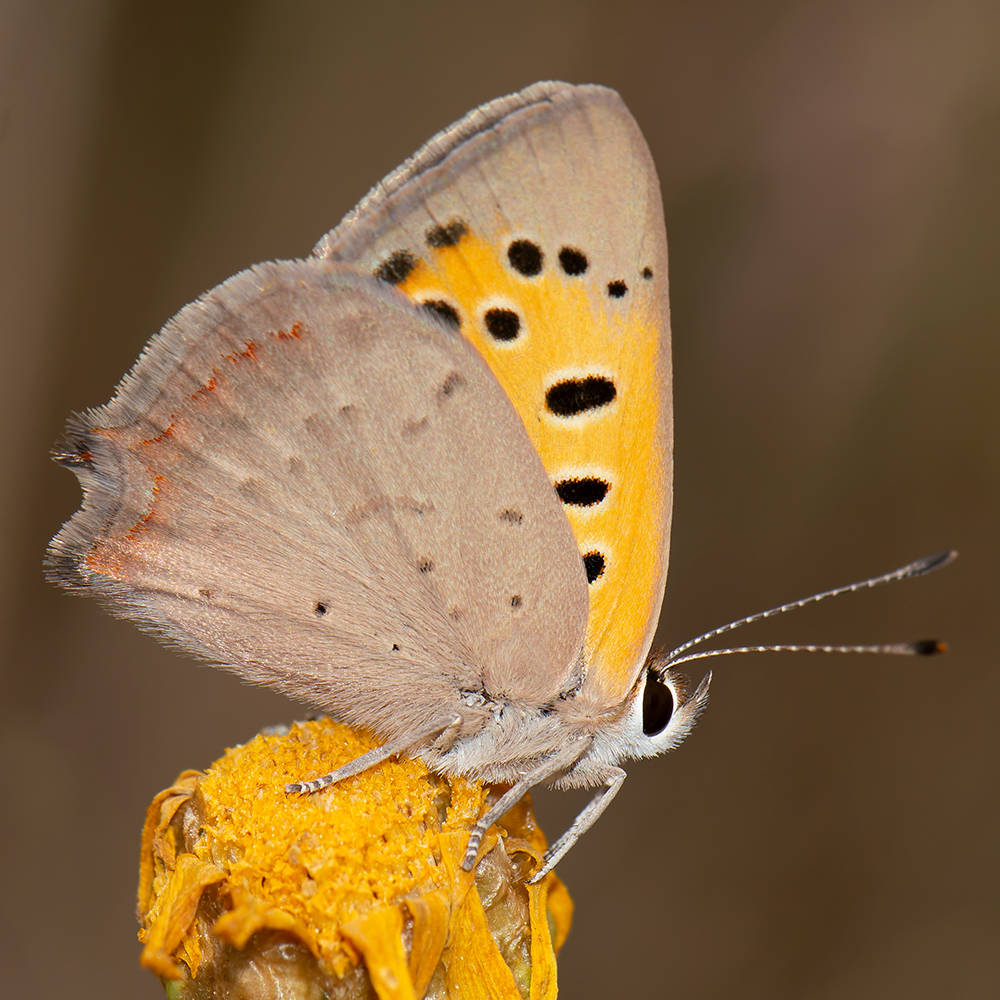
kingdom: Animalia
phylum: Arthropoda
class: Insecta
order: Lepidoptera
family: Lycaenidae
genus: Lycaena
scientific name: Lycaena phlaeas
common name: Small copper
